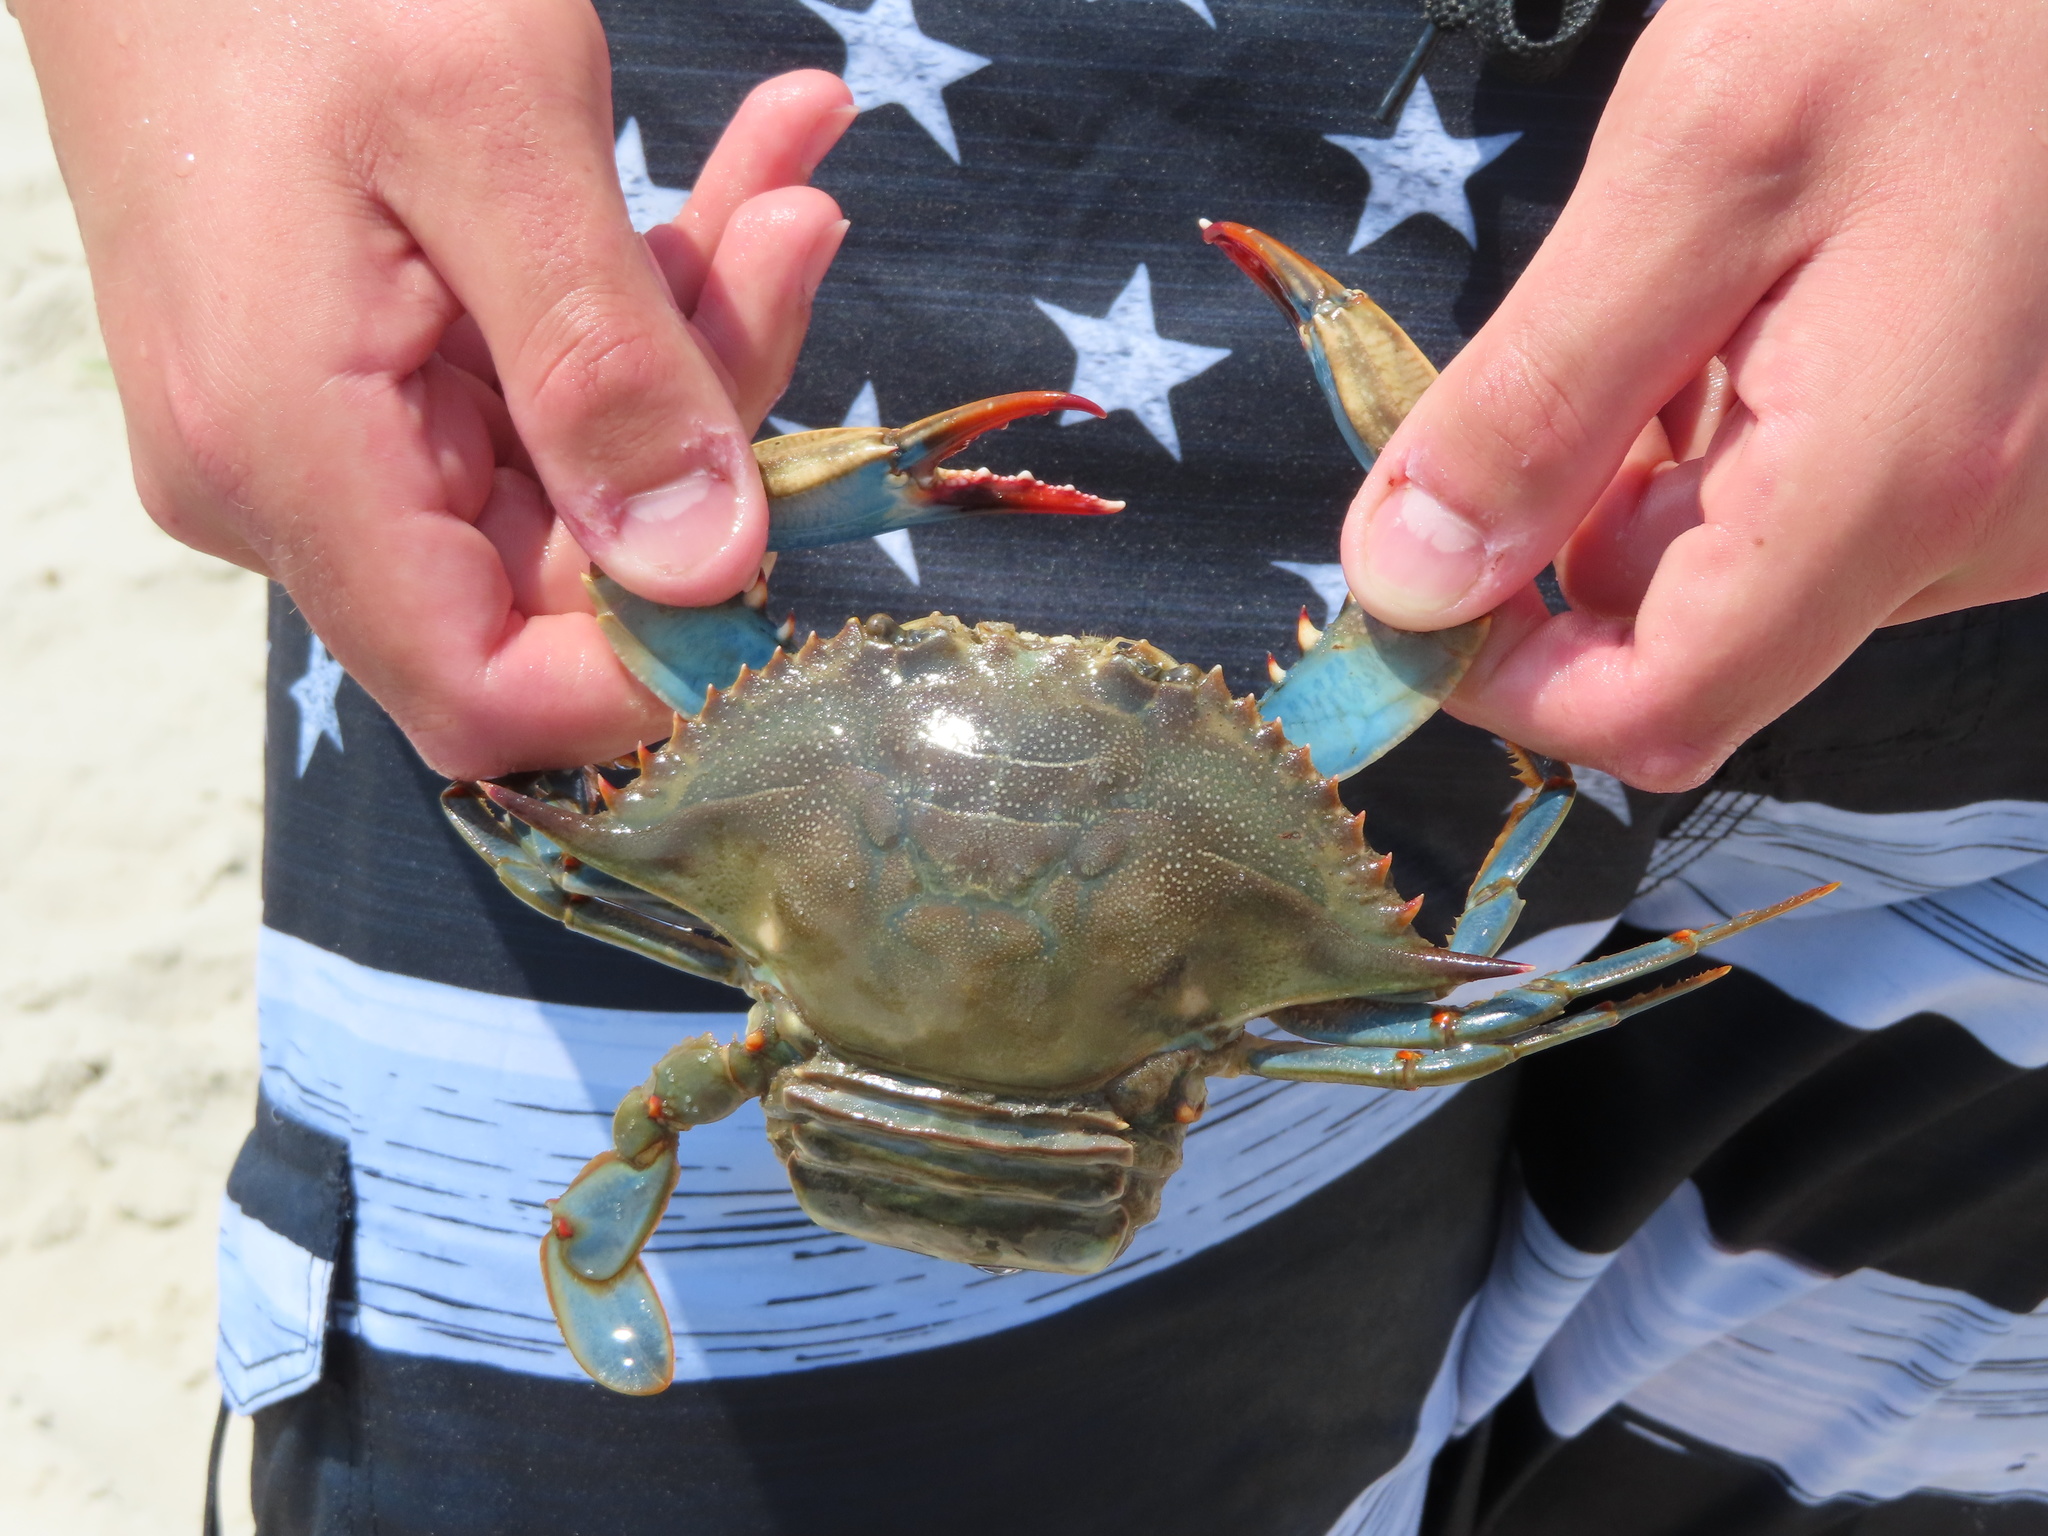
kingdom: Animalia
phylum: Arthropoda
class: Malacostraca
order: Decapoda
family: Portunidae
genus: Callinectes
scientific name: Callinectes sapidus
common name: Blue crab
